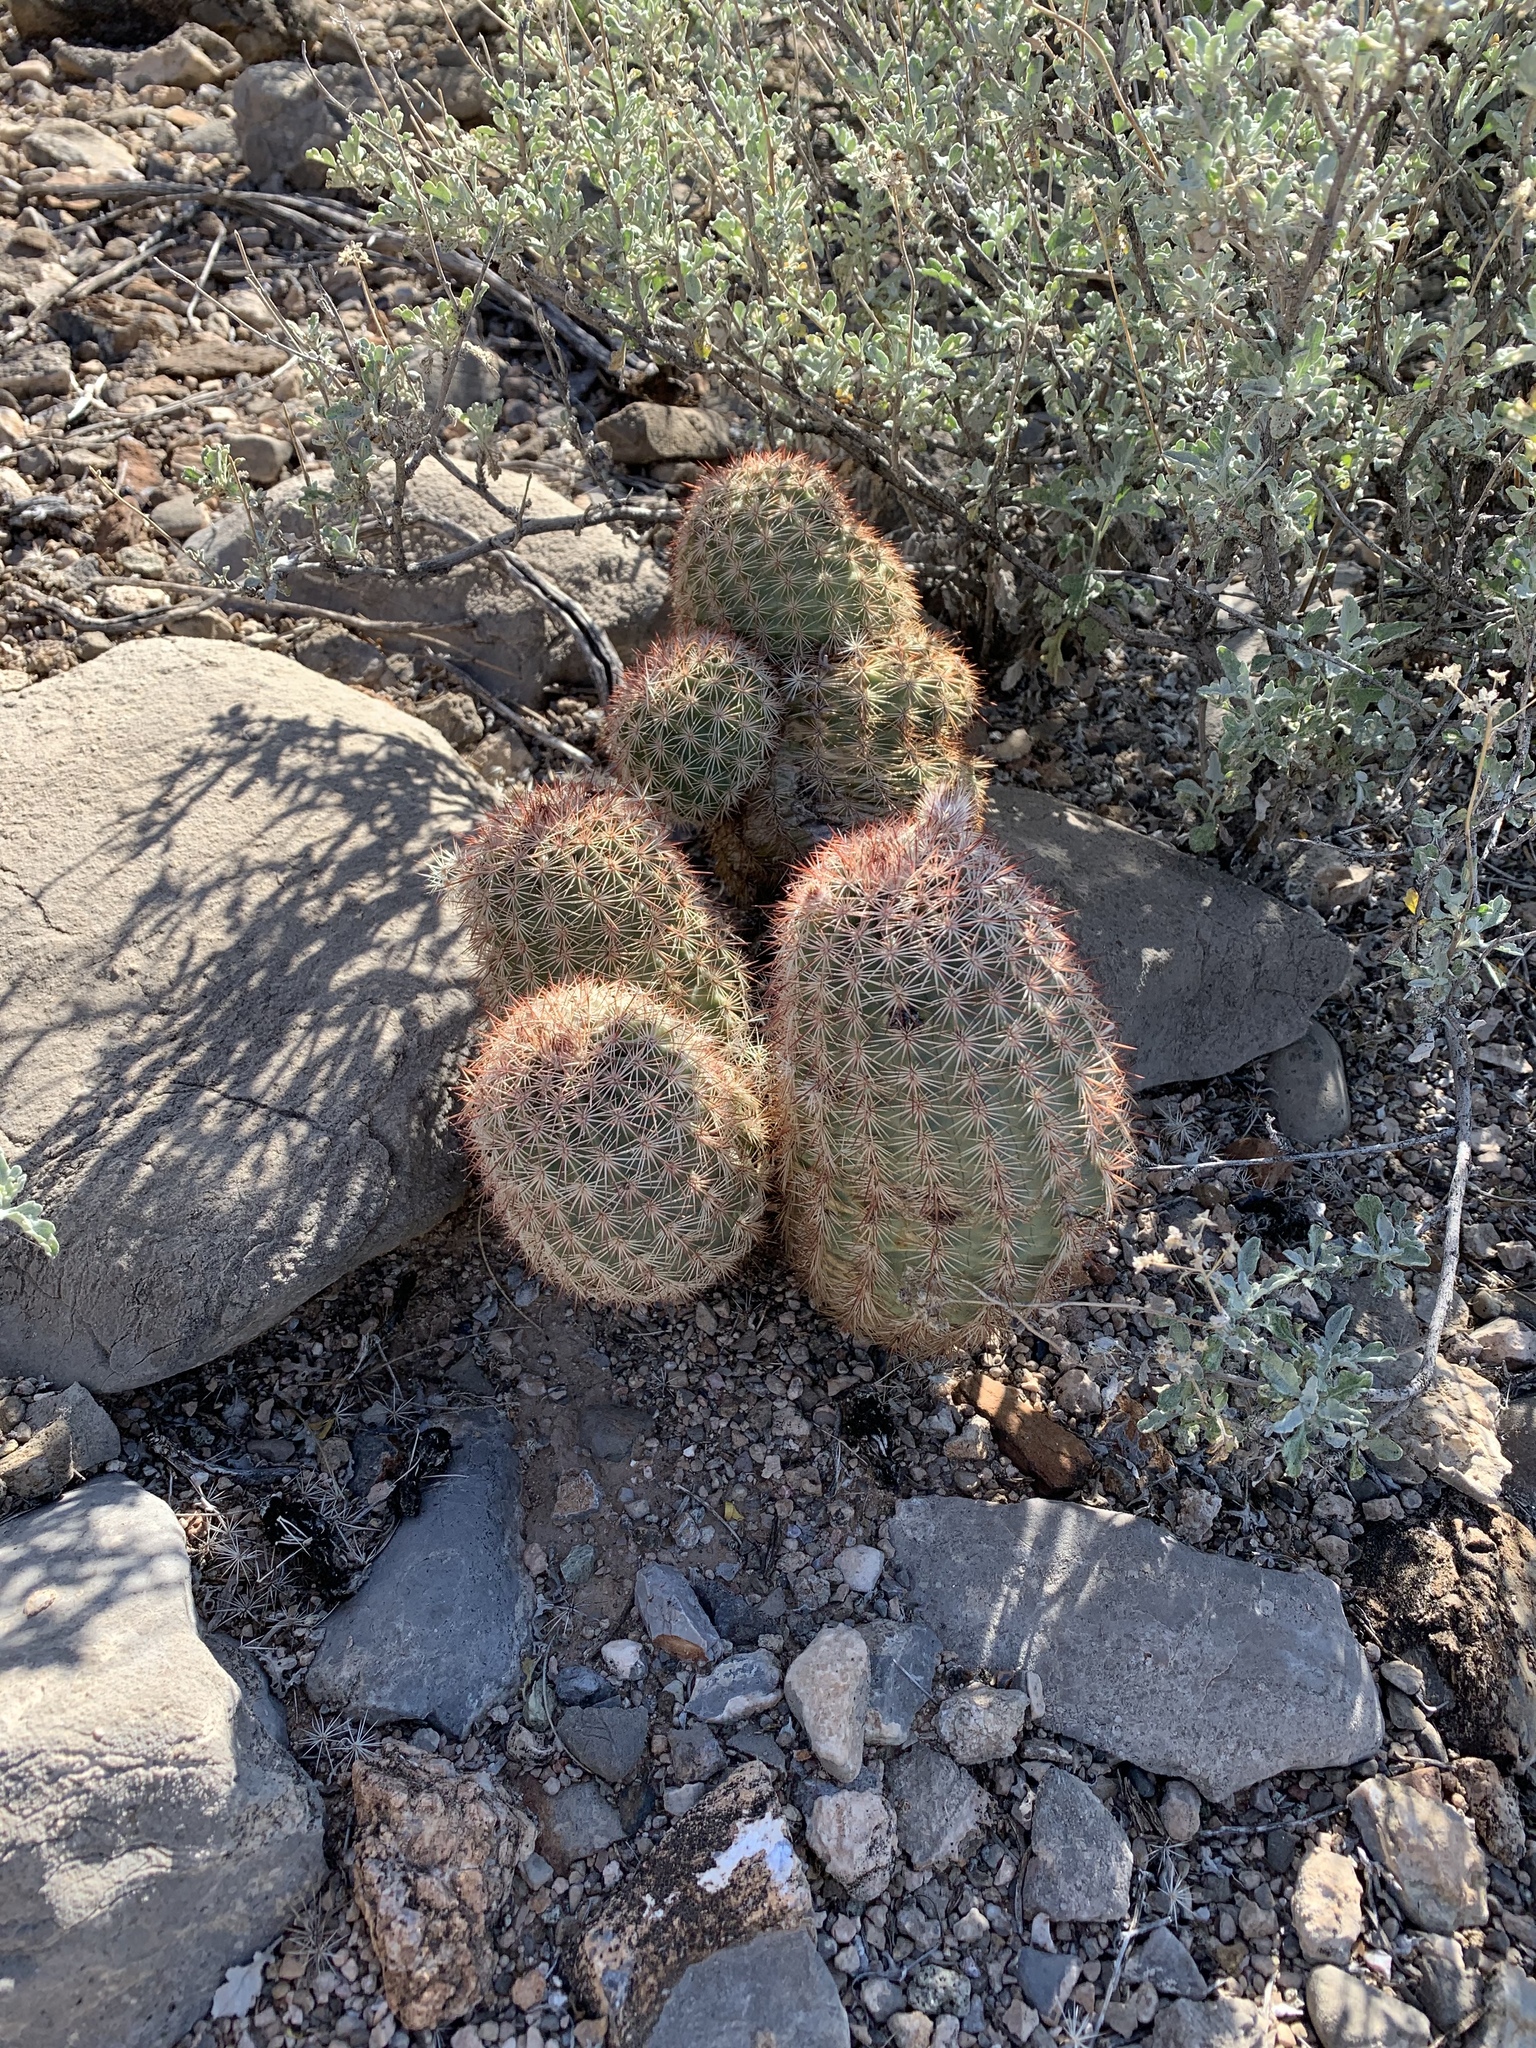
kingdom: Plantae
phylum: Tracheophyta
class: Magnoliopsida
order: Caryophyllales
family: Cactaceae
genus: Echinocereus
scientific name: Echinocereus dasyacanthus
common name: Spiny hedgehog cactus
